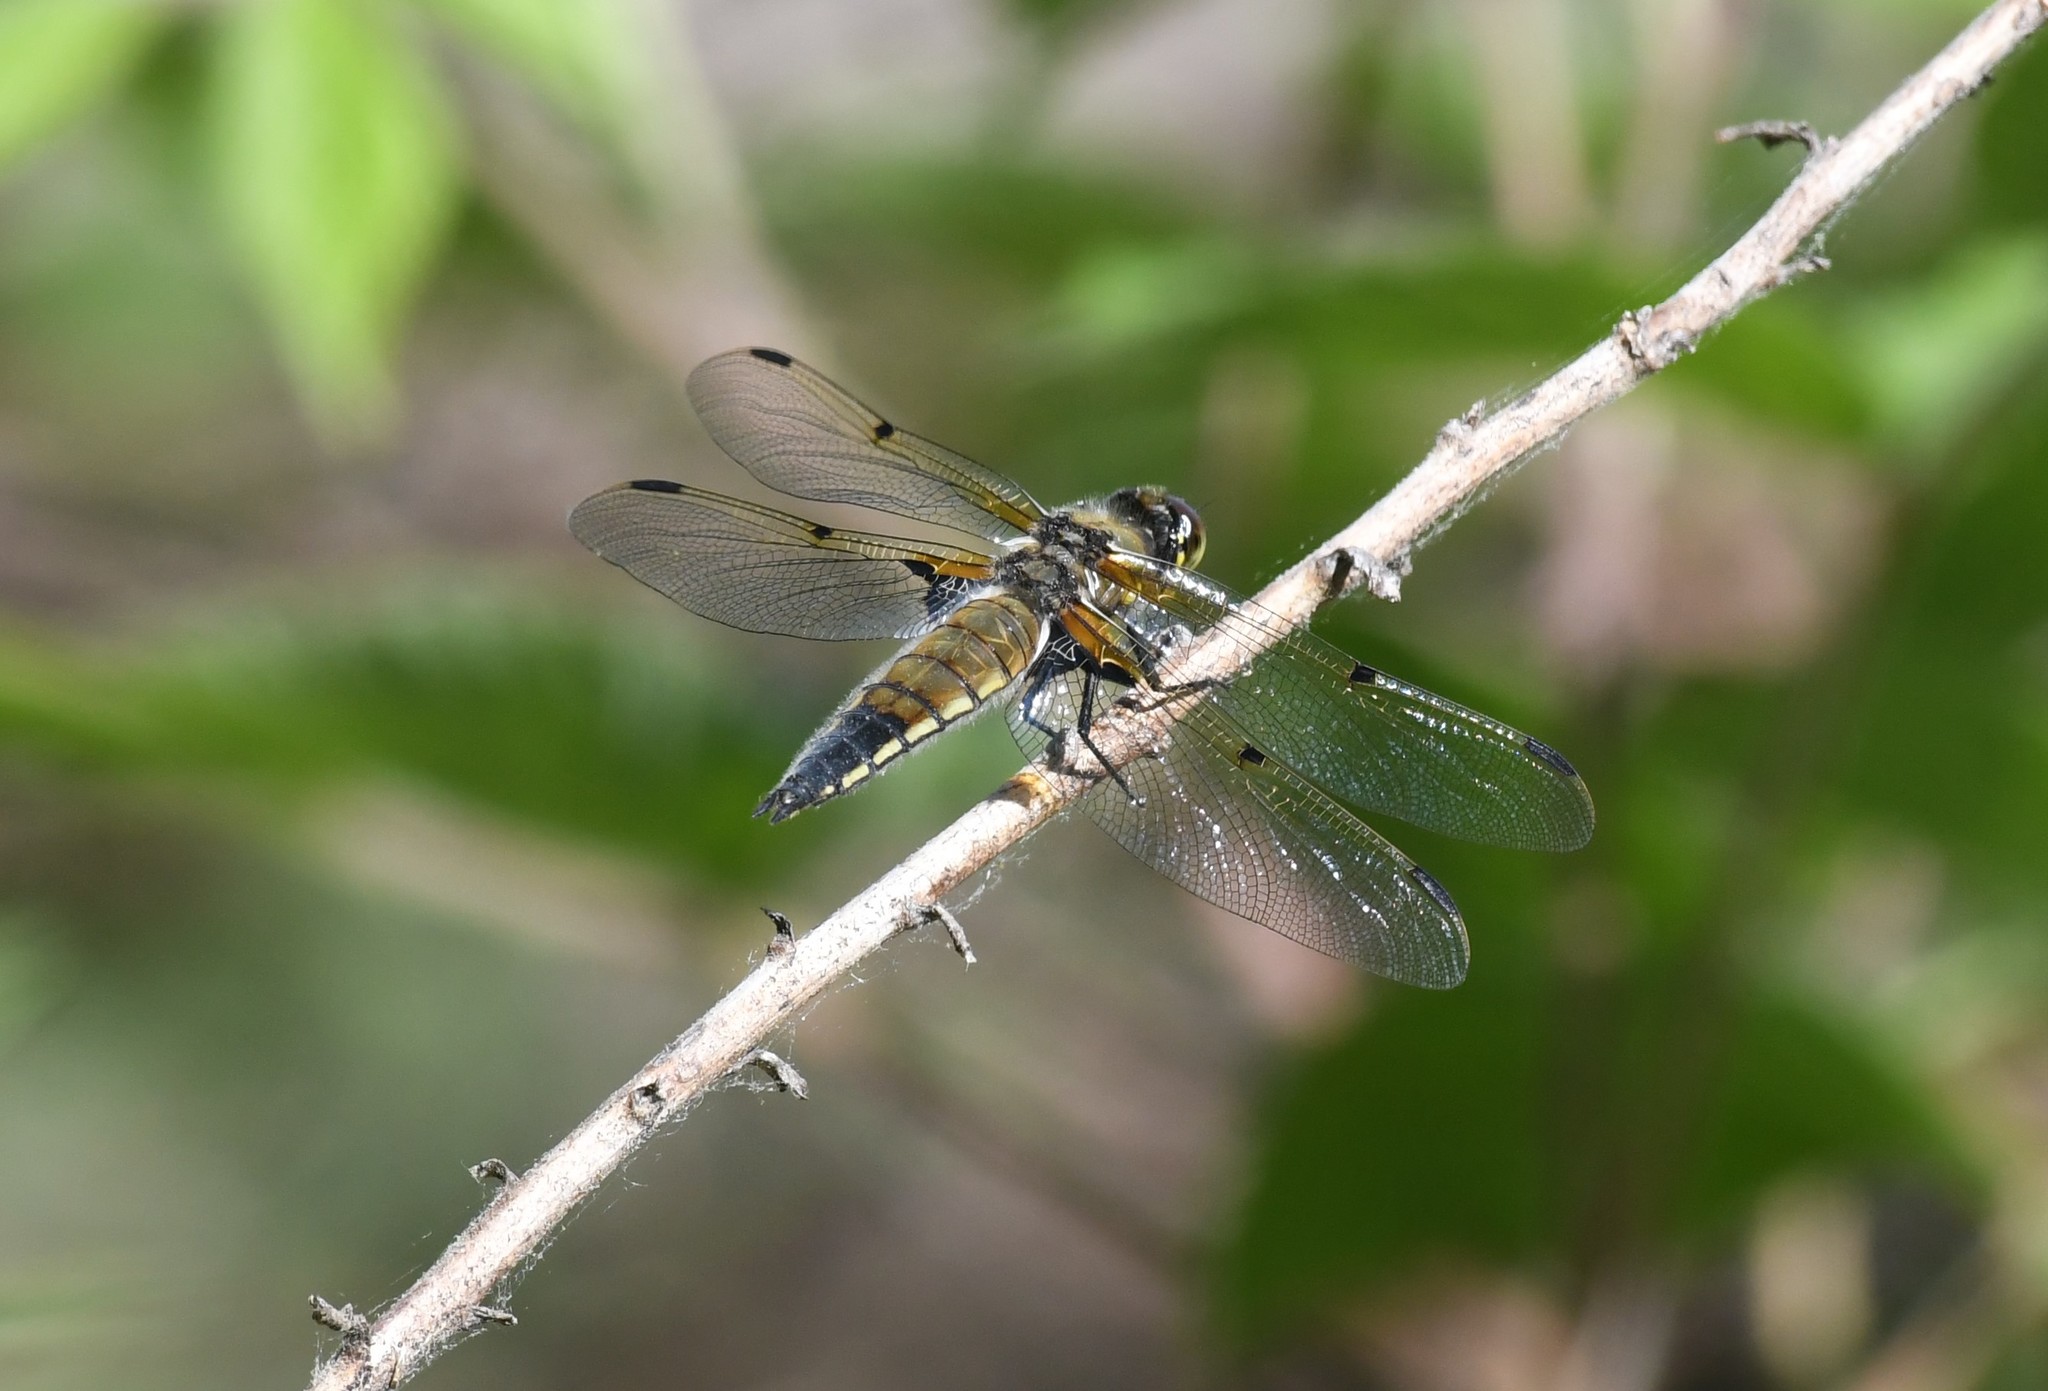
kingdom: Animalia
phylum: Arthropoda
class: Insecta
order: Odonata
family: Libellulidae
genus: Libellula
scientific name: Libellula quadrimaculata
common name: Four-spotted chaser
